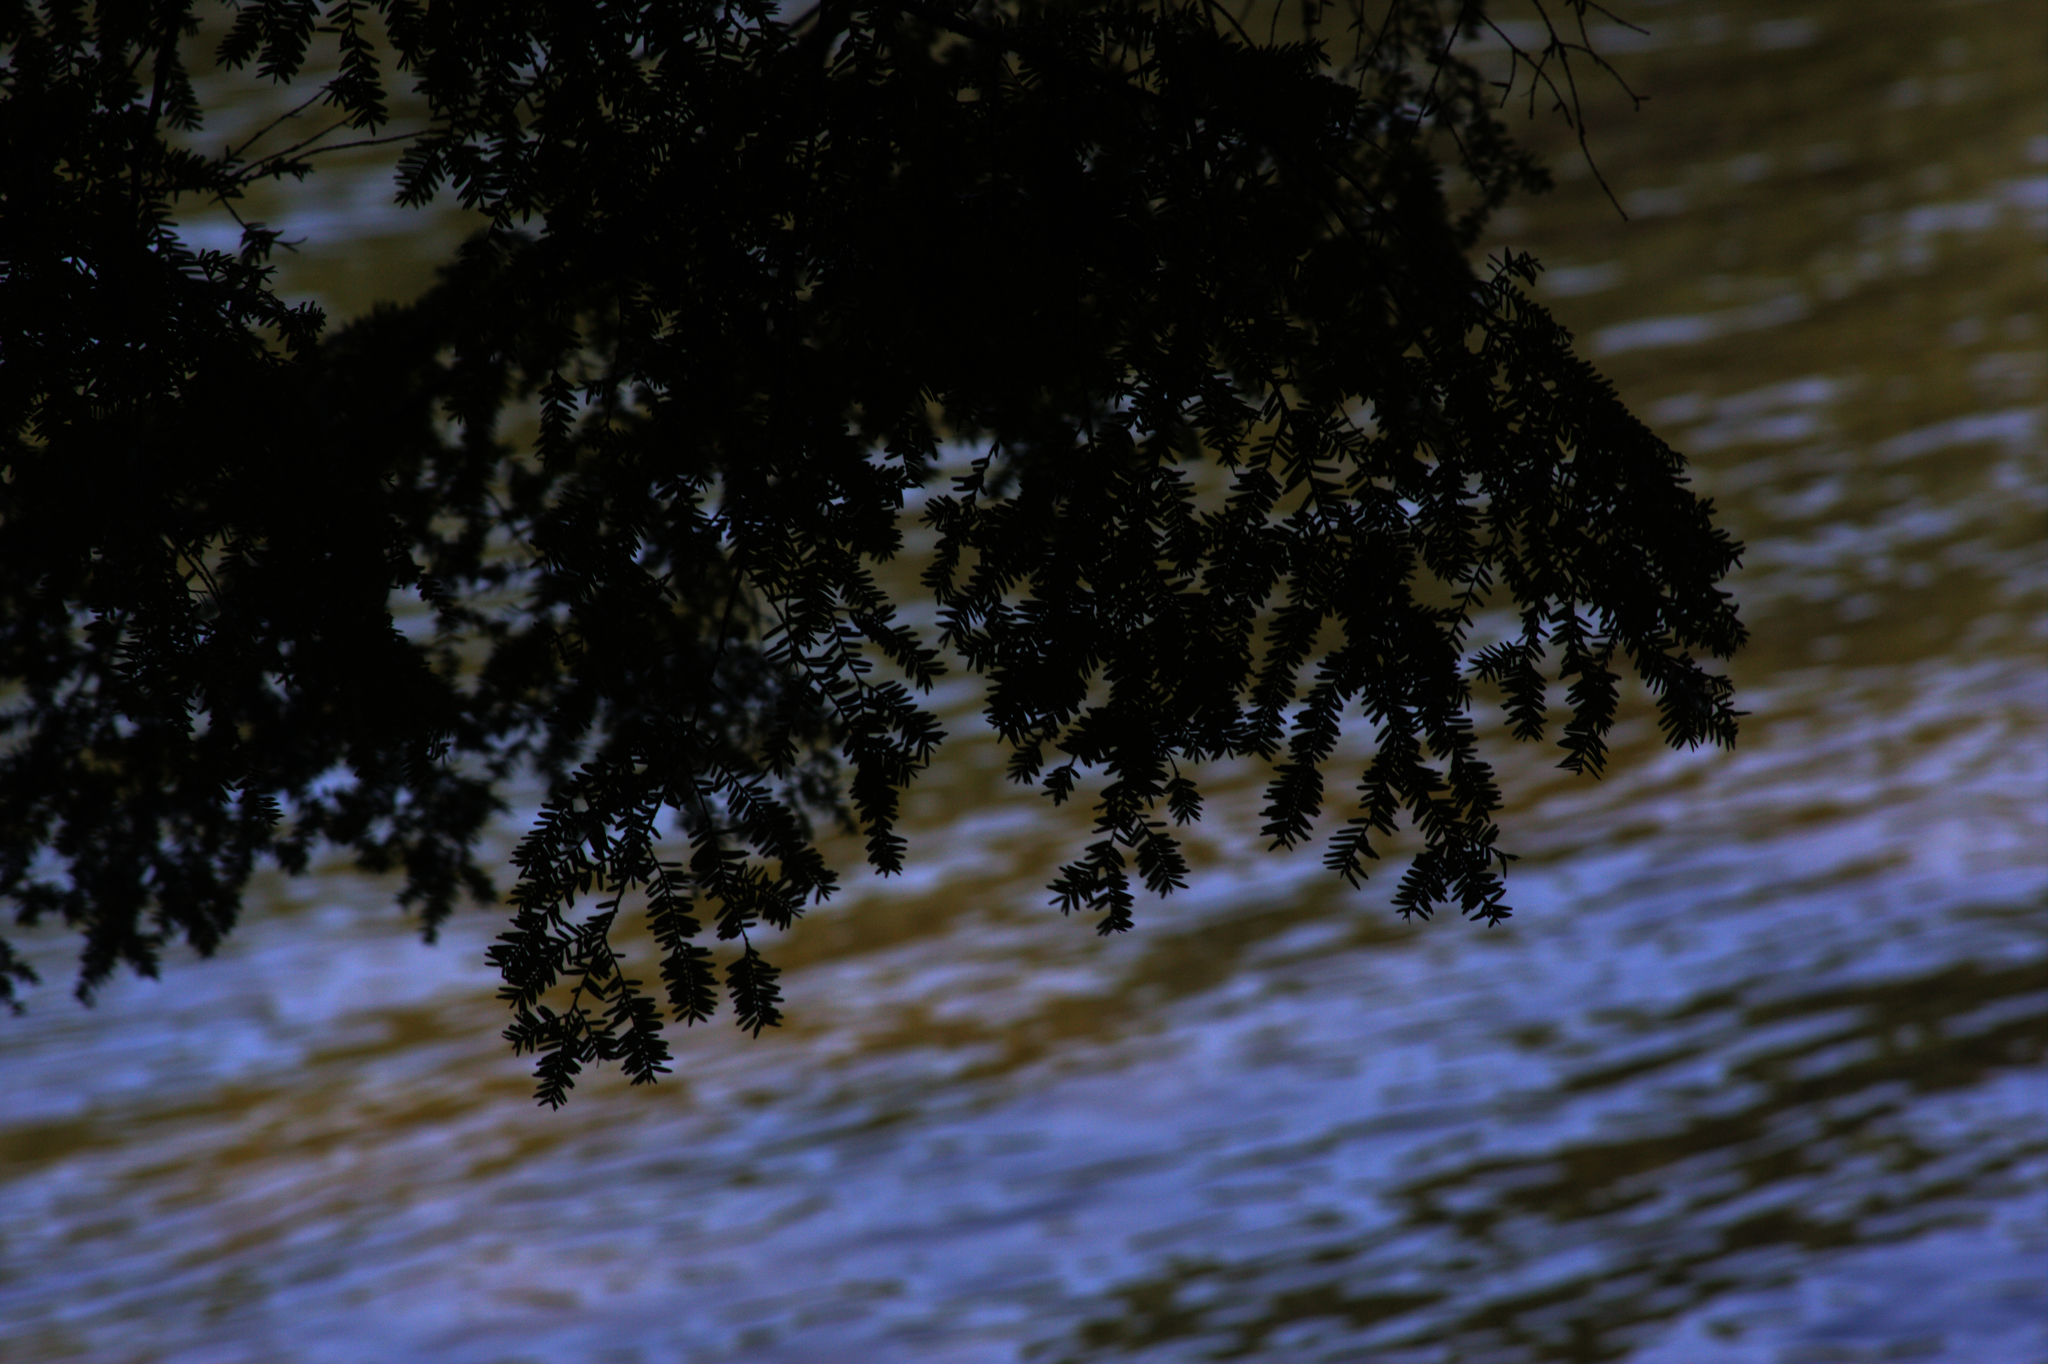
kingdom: Plantae
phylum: Tracheophyta
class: Pinopsida
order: Pinales
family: Pinaceae
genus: Tsuga
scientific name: Tsuga canadensis
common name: Eastern hemlock
